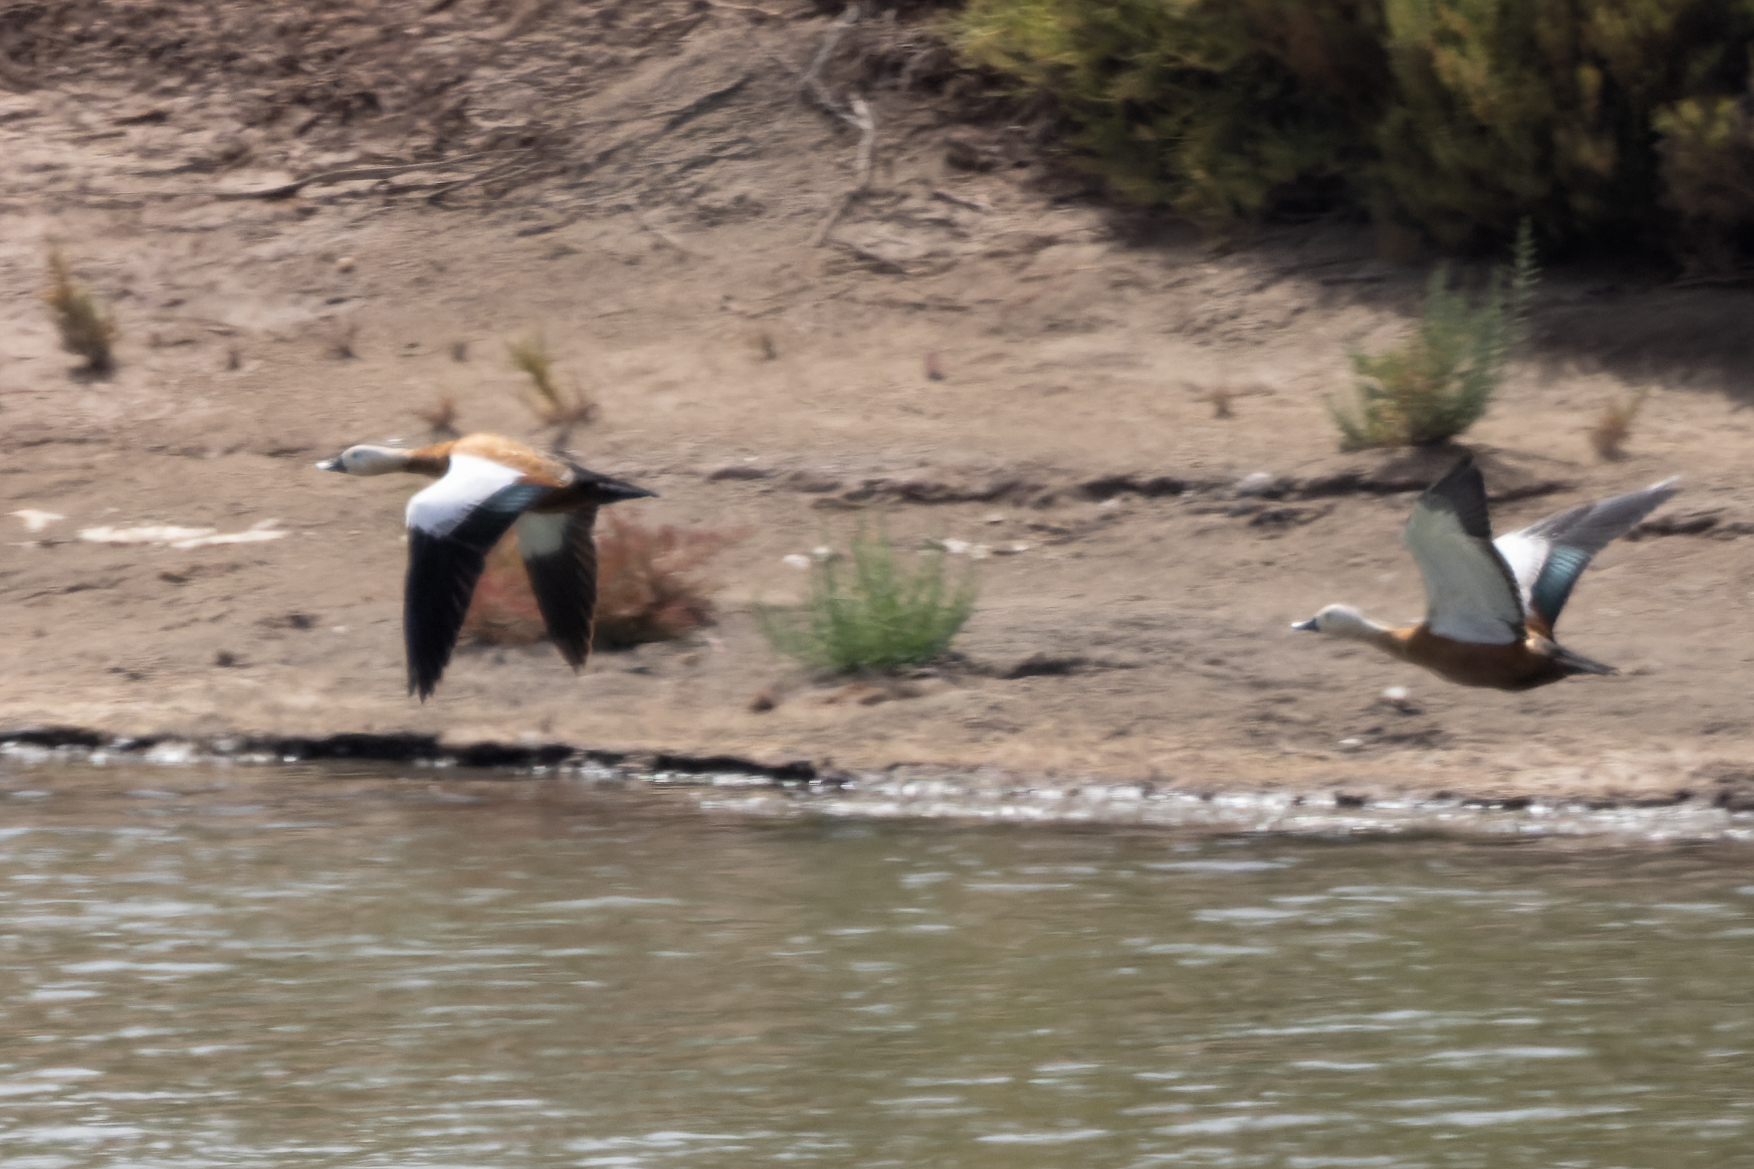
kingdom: Animalia
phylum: Chordata
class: Aves
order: Anseriformes
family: Anatidae
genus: Tadorna
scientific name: Tadorna ferruginea
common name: Ruddy shelduck
